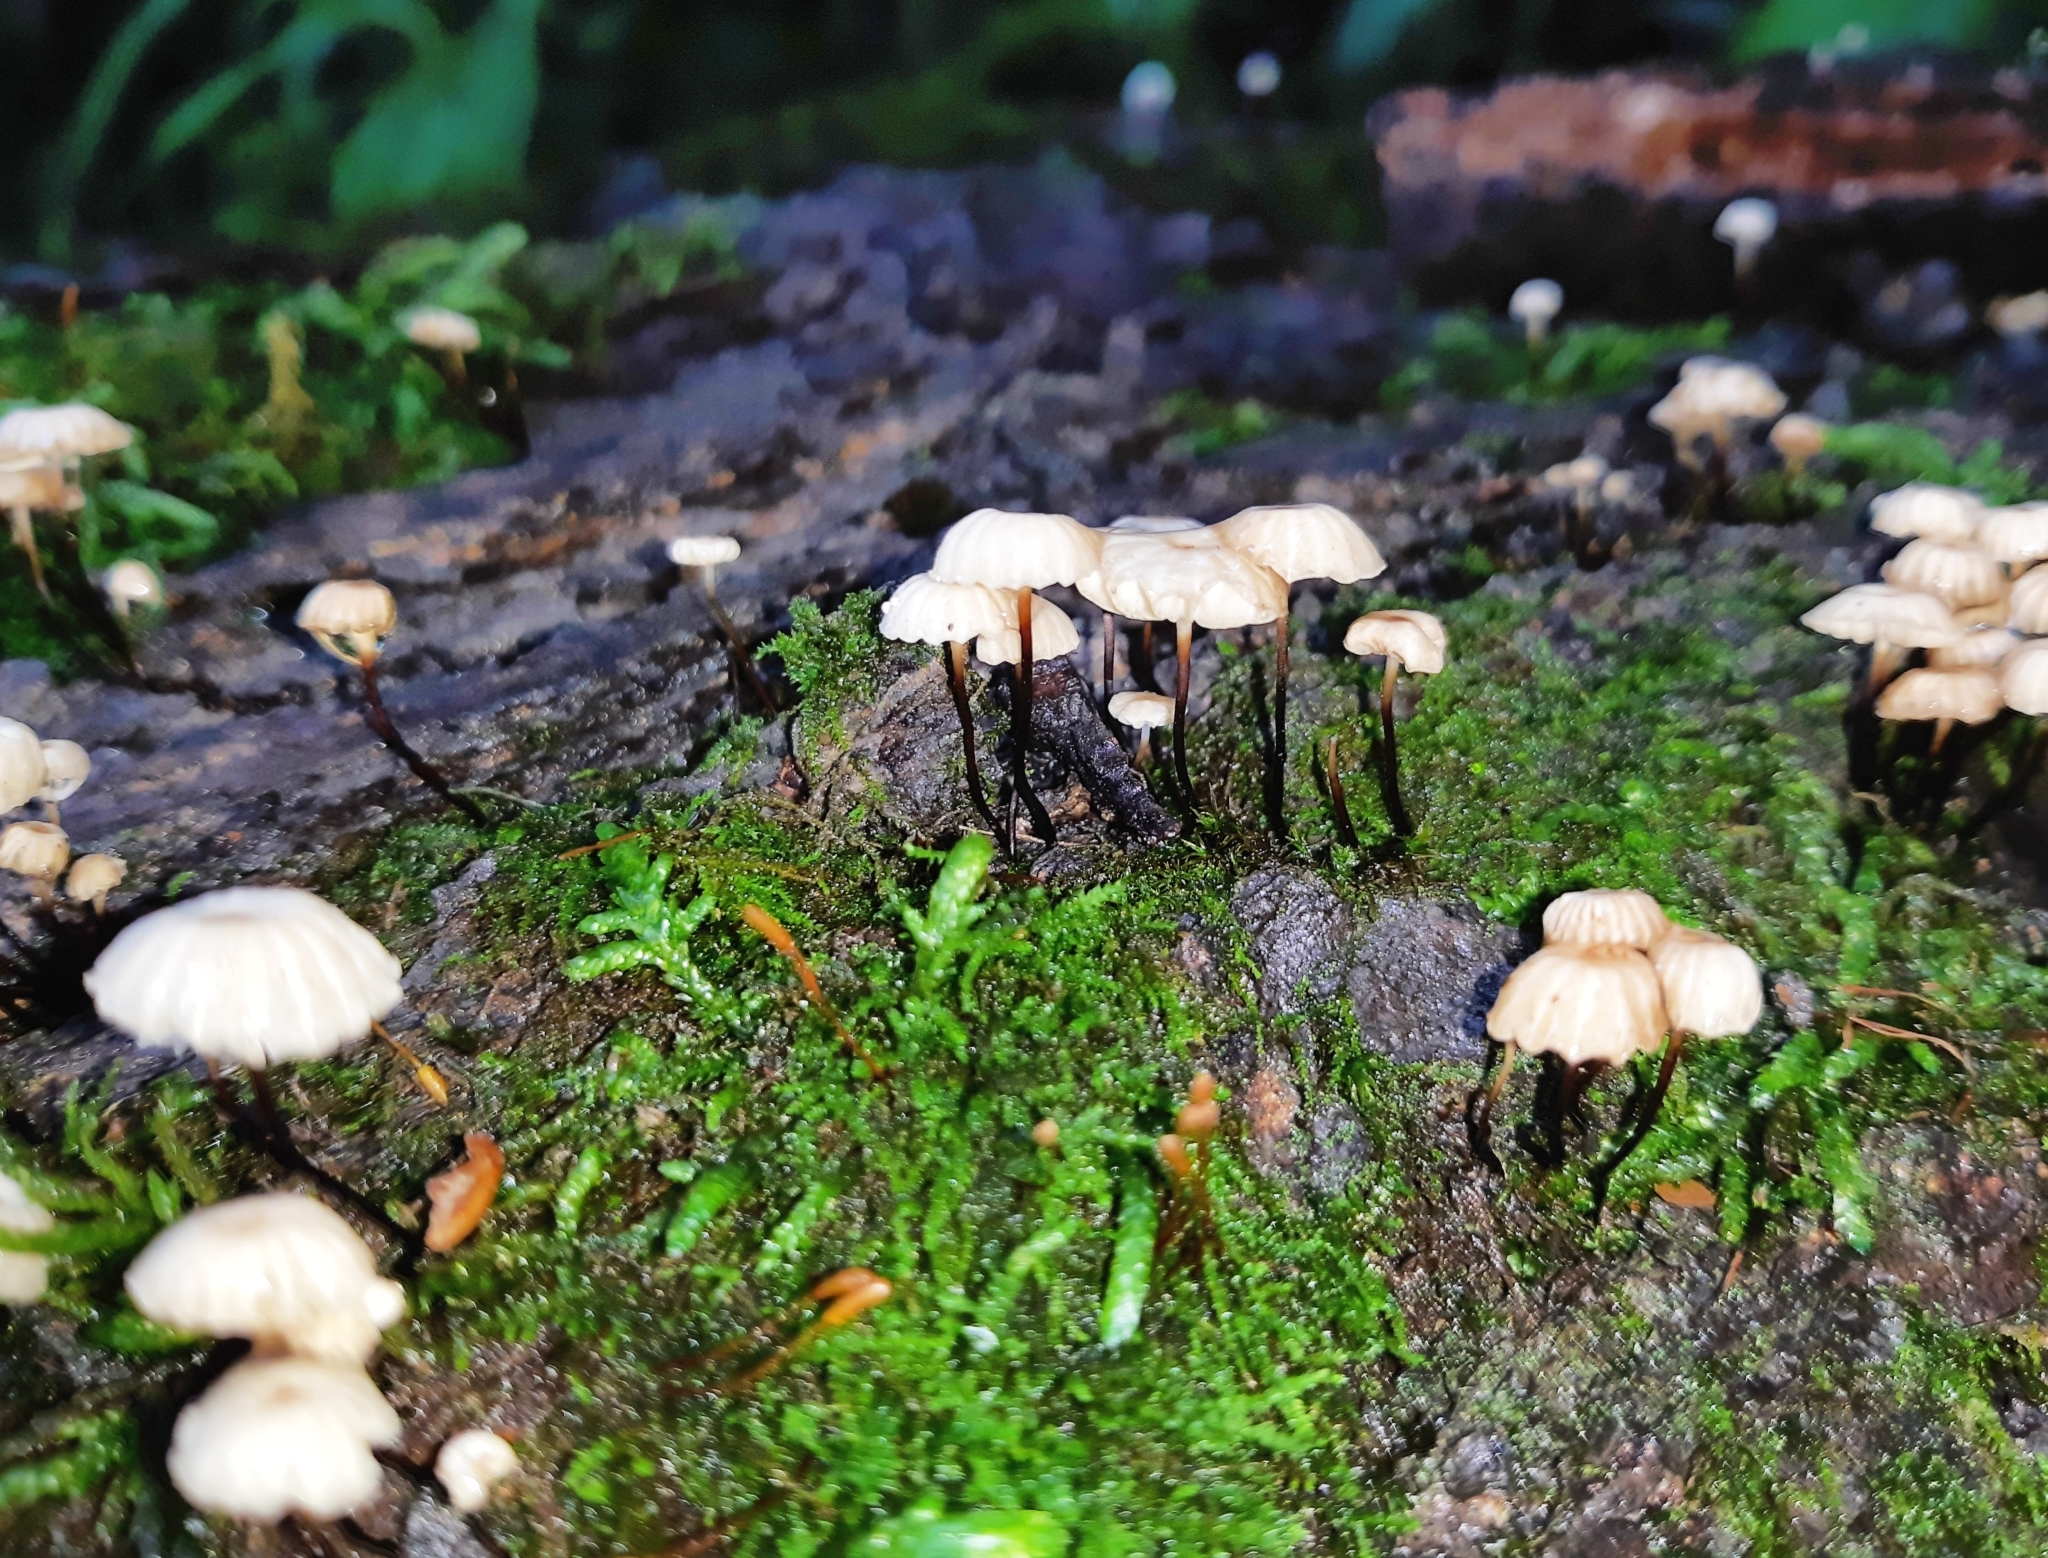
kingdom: Fungi
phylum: Basidiomycota
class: Agaricomycetes
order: Agaricales
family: Marasmiaceae
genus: Marasmius
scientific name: Marasmius rotula
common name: Collared parachute
